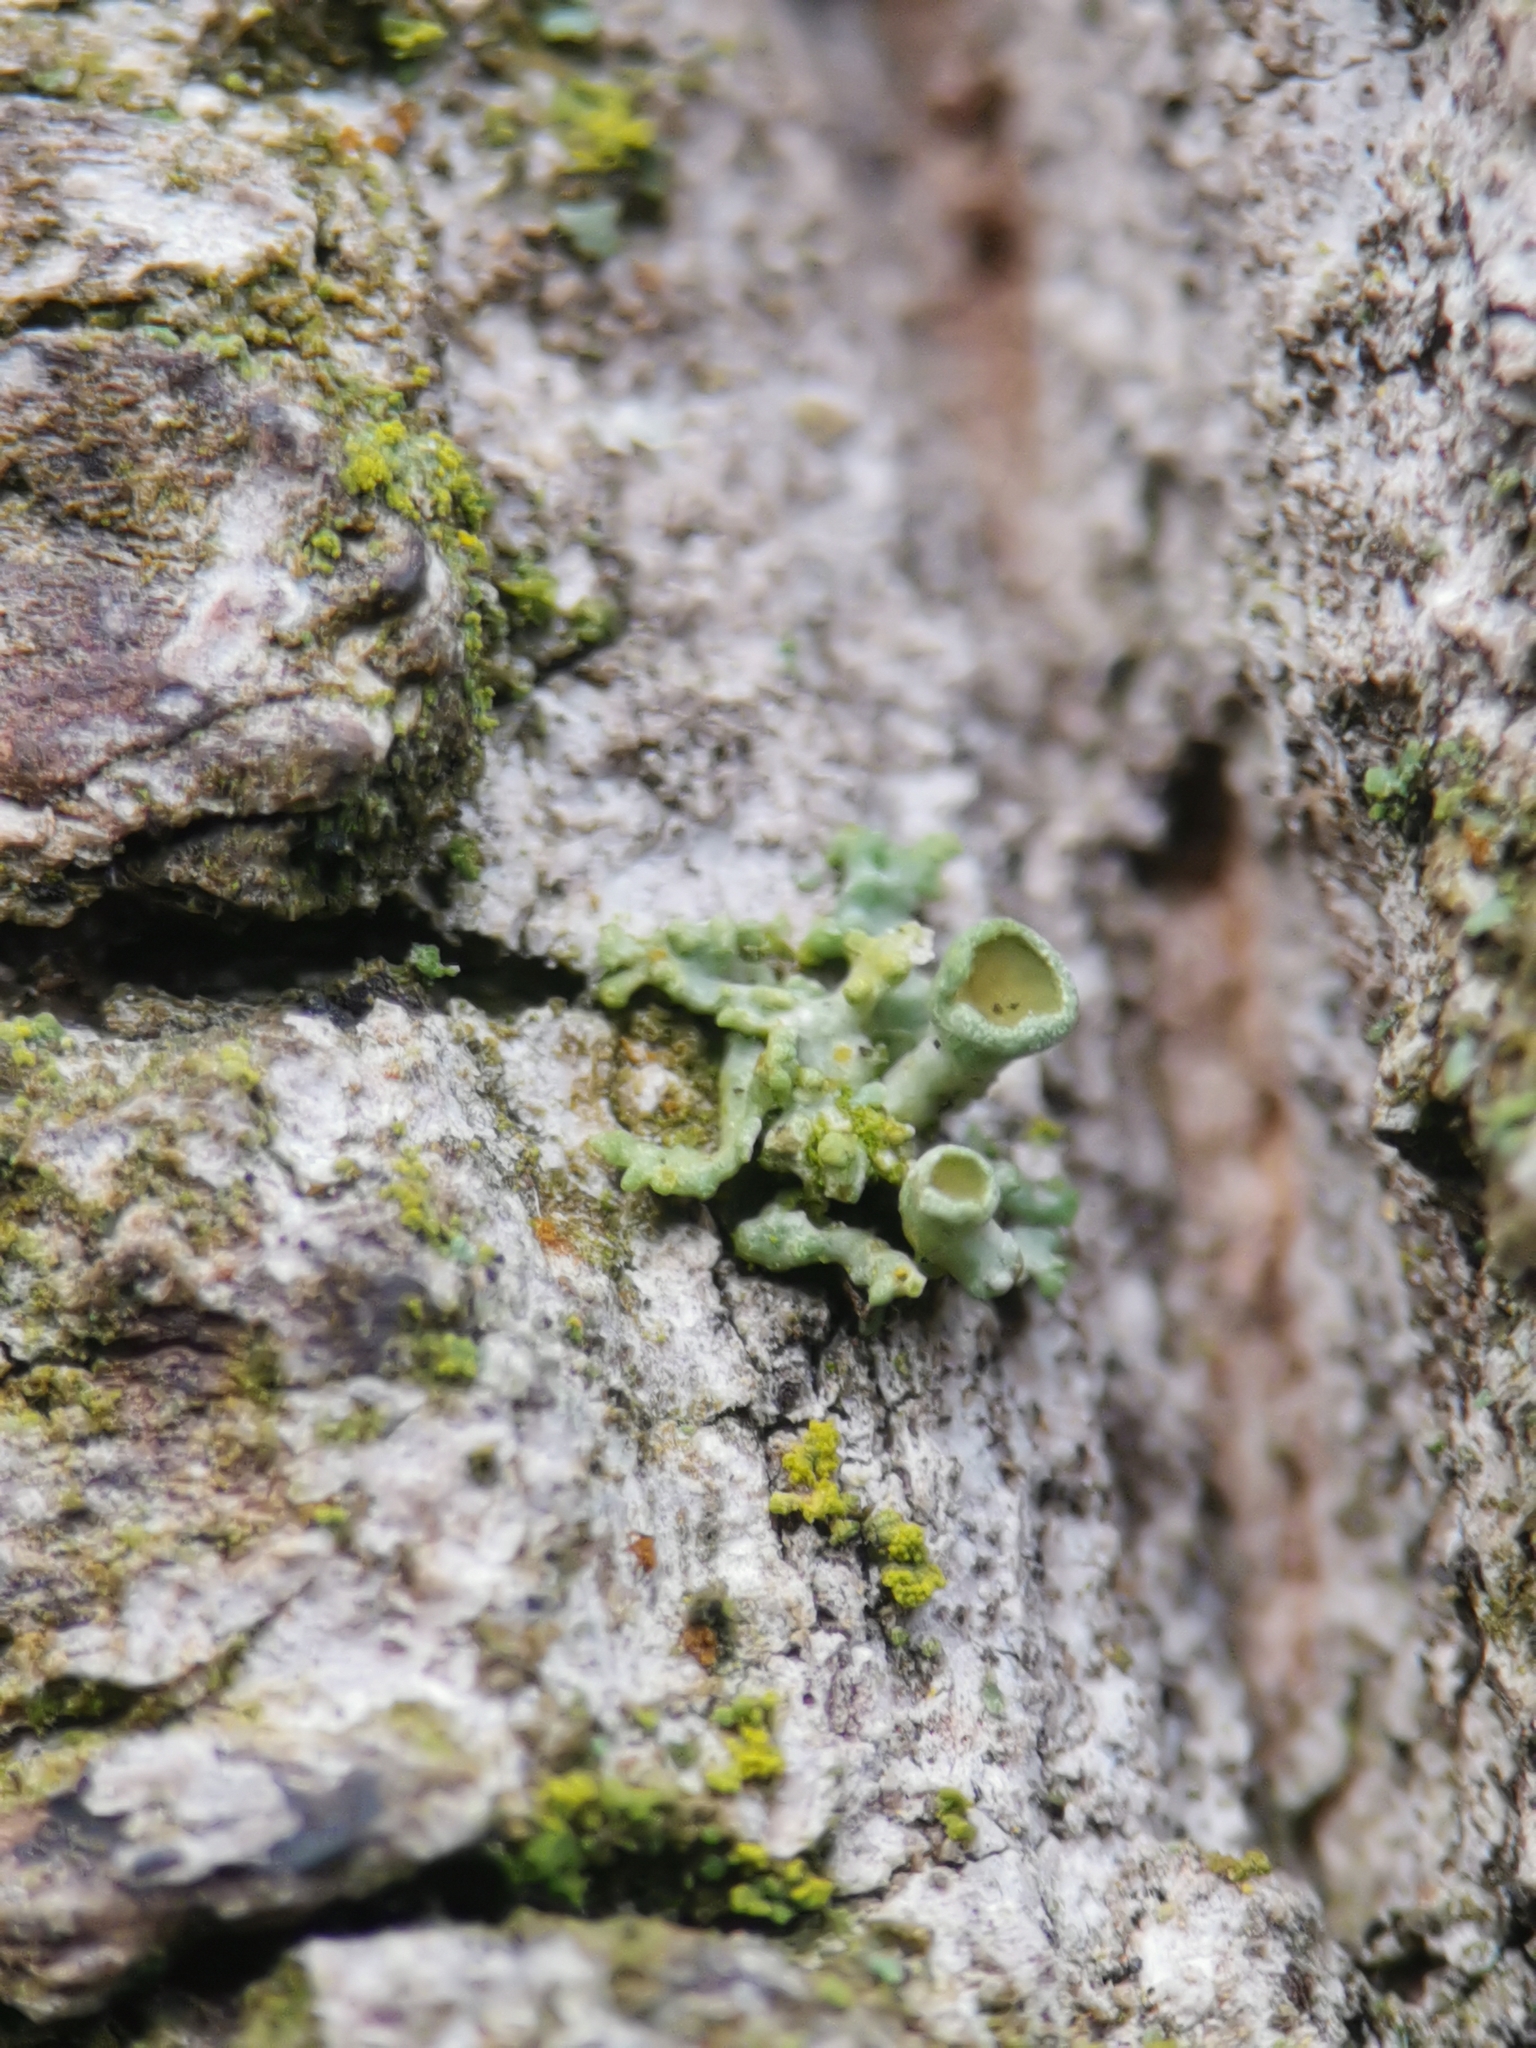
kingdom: Fungi
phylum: Ascomycota
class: Lecanoromycetes
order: Teloschistales
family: Teloschistaceae
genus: Polycauliona
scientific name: Polycauliona polycarpa
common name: Pin-cushion sunburst lichen
